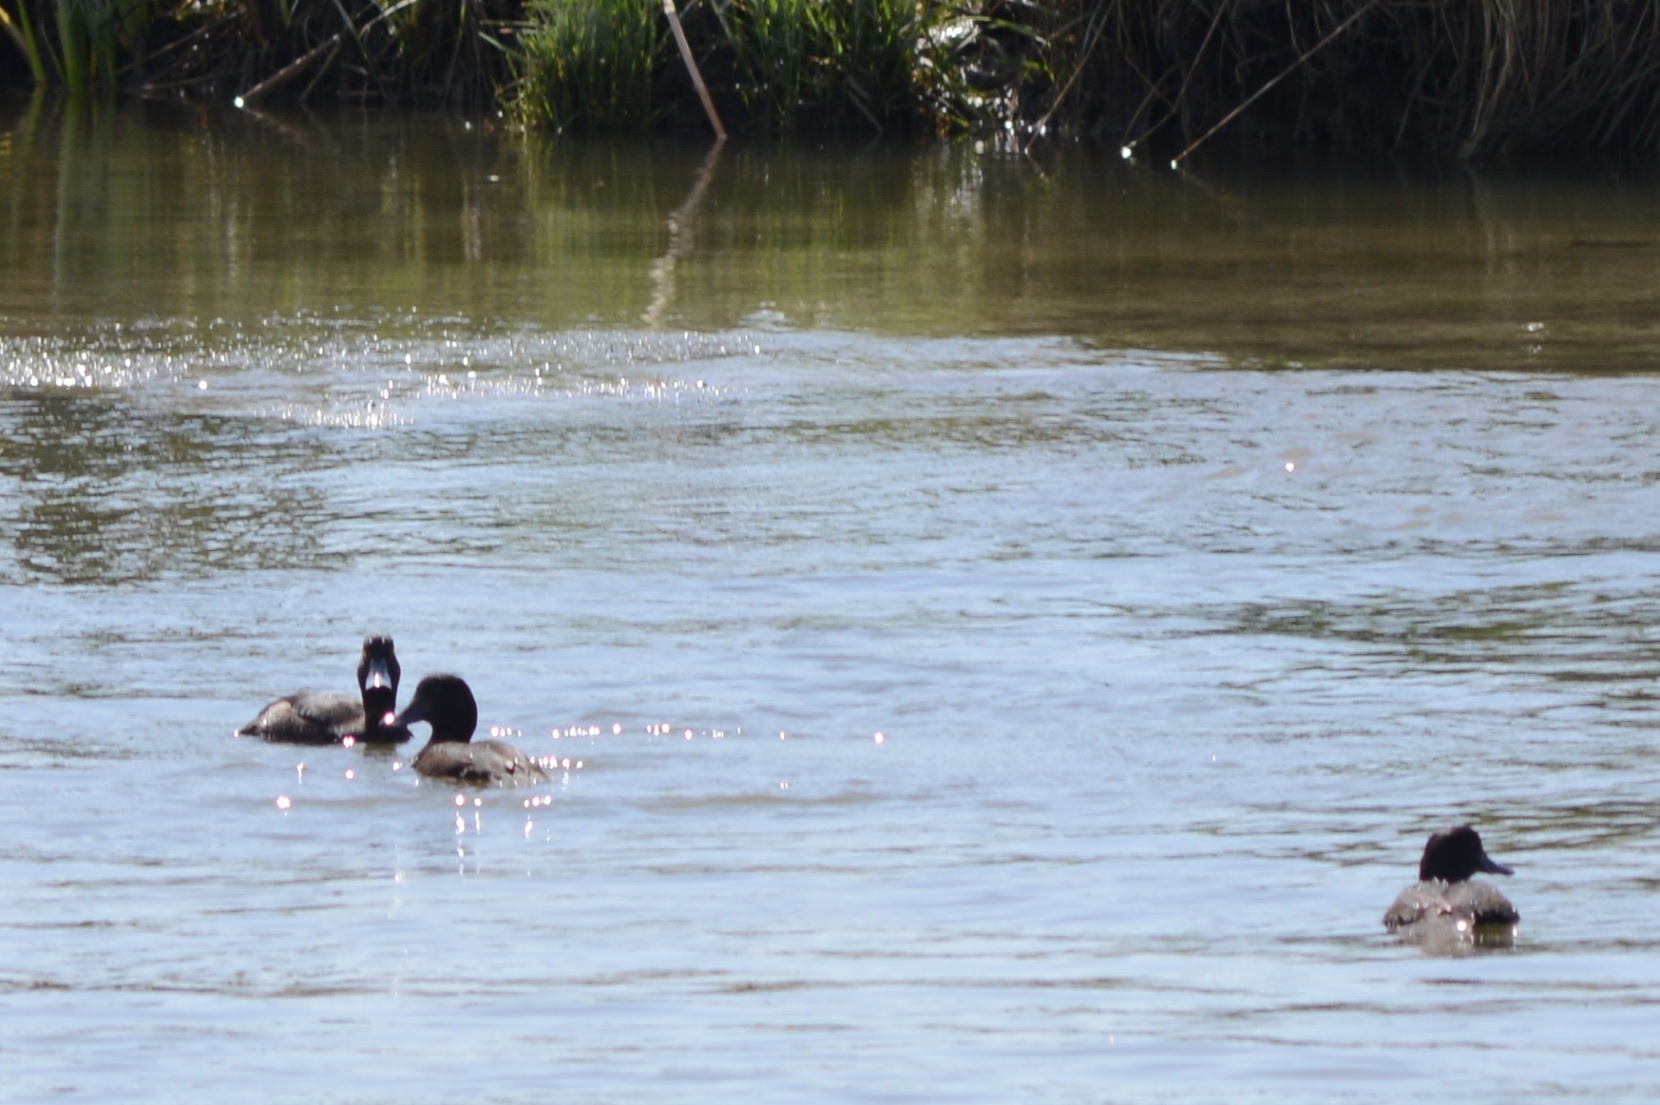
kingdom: Animalia
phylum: Chordata
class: Aves
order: Anseriformes
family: Anatidae
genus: Aythya
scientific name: Aythya novaeseelandiae
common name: New zealand scaup
